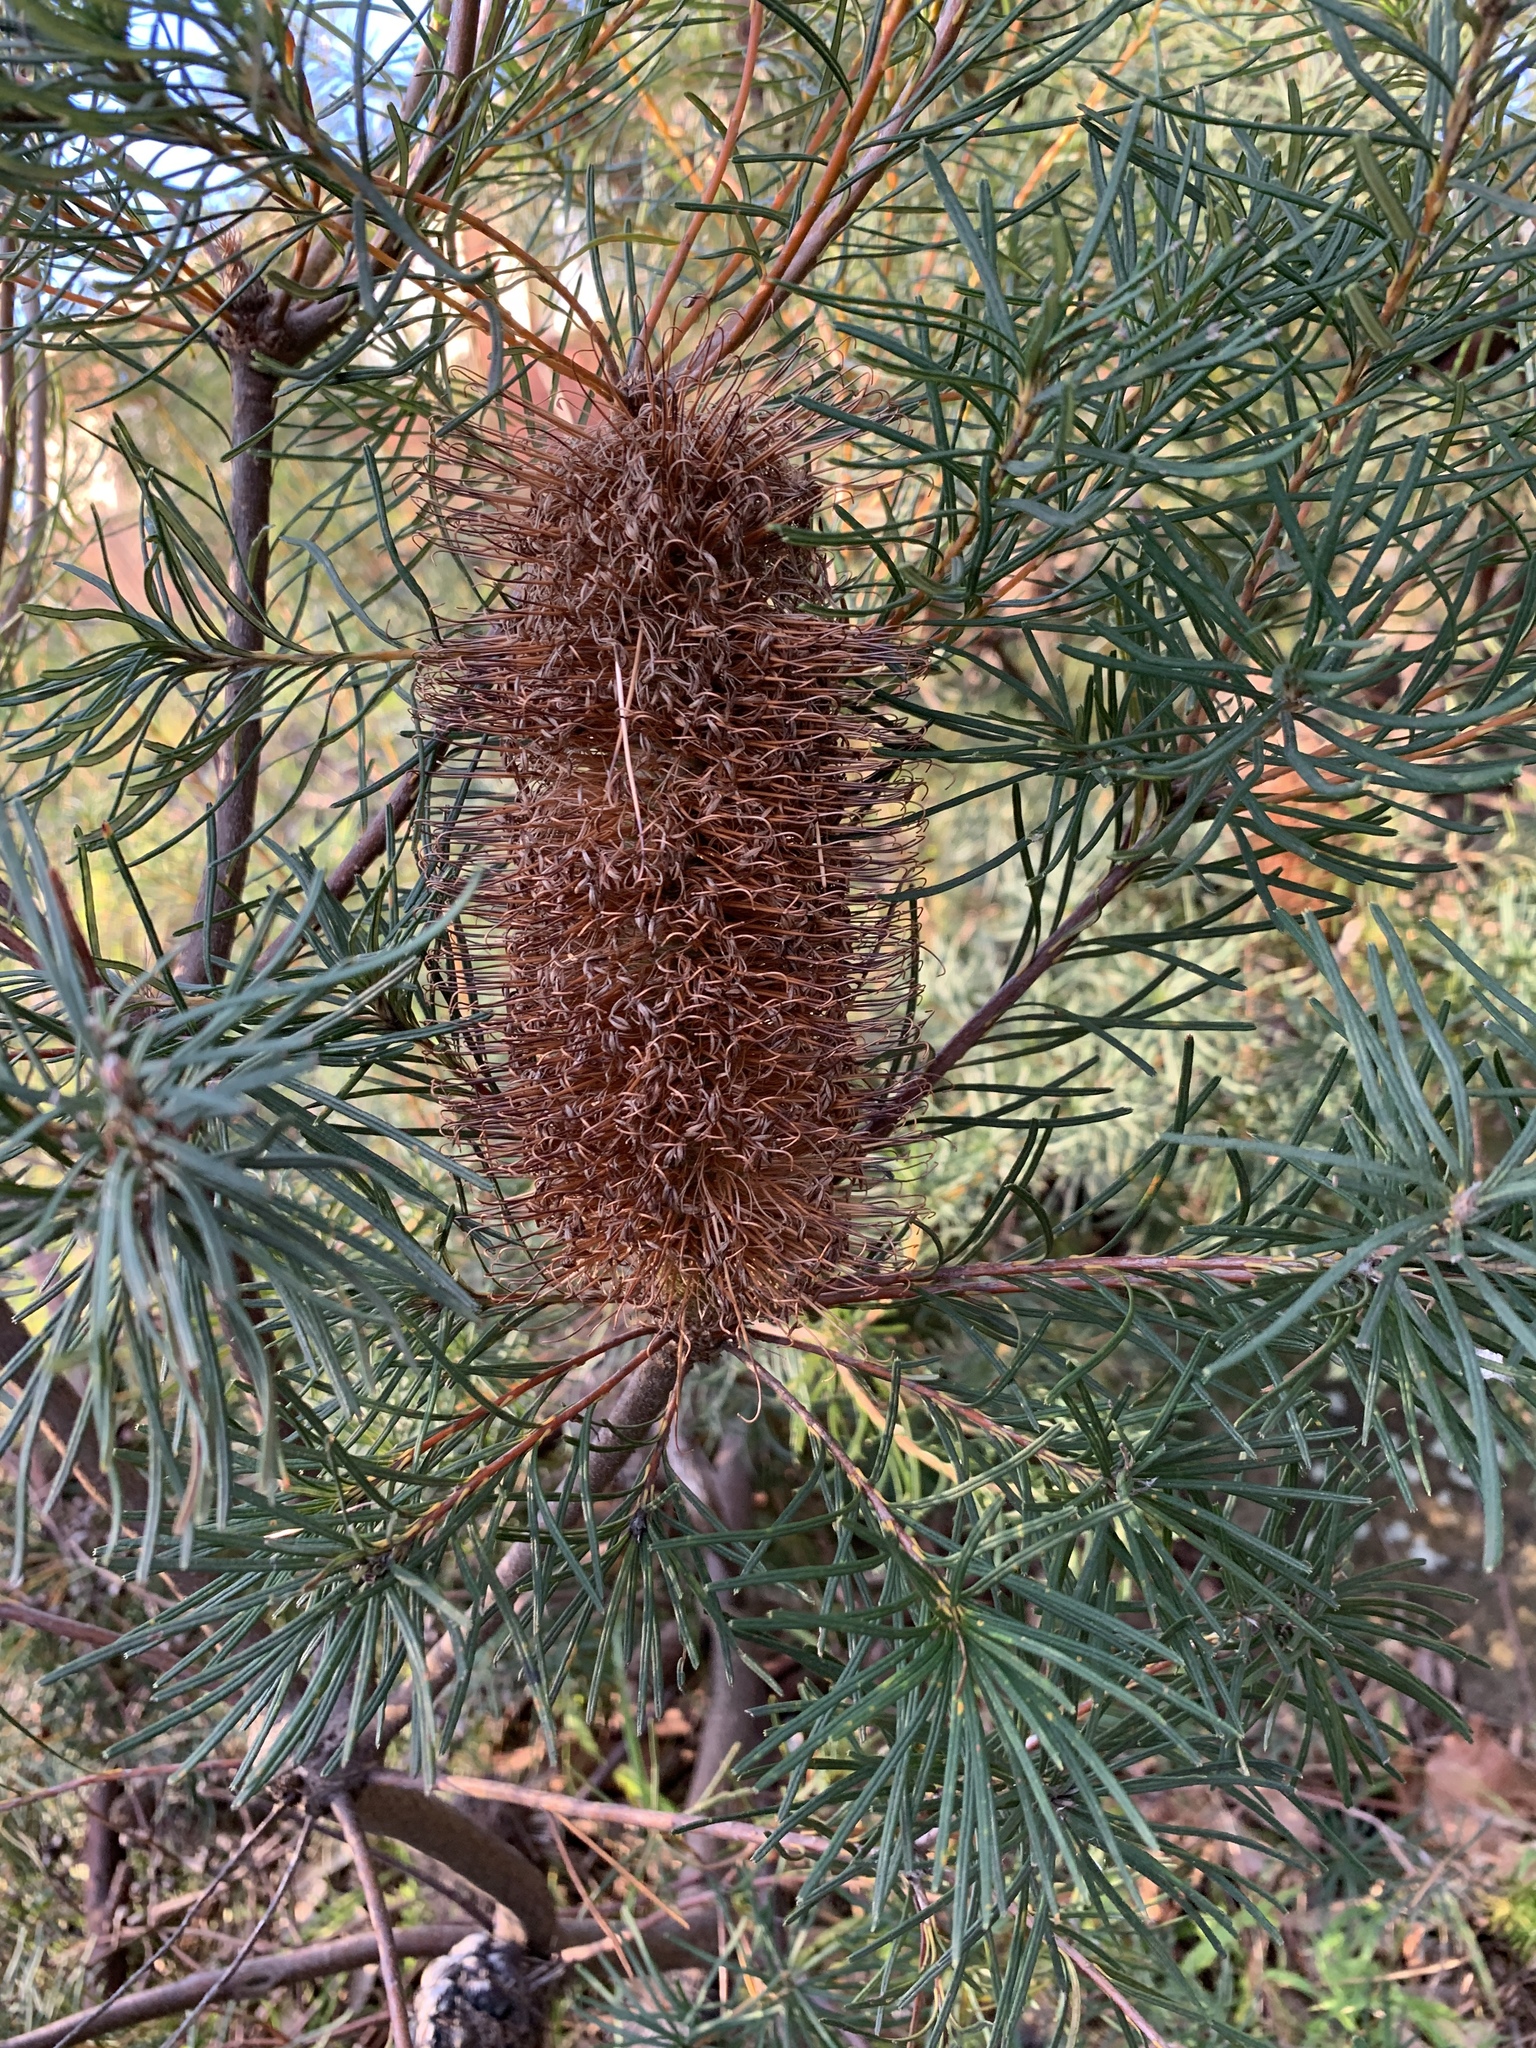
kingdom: Plantae
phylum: Tracheophyta
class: Magnoliopsida
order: Proteales
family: Proteaceae
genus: Banksia
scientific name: Banksia spinulosa
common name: Hairpin banksia
